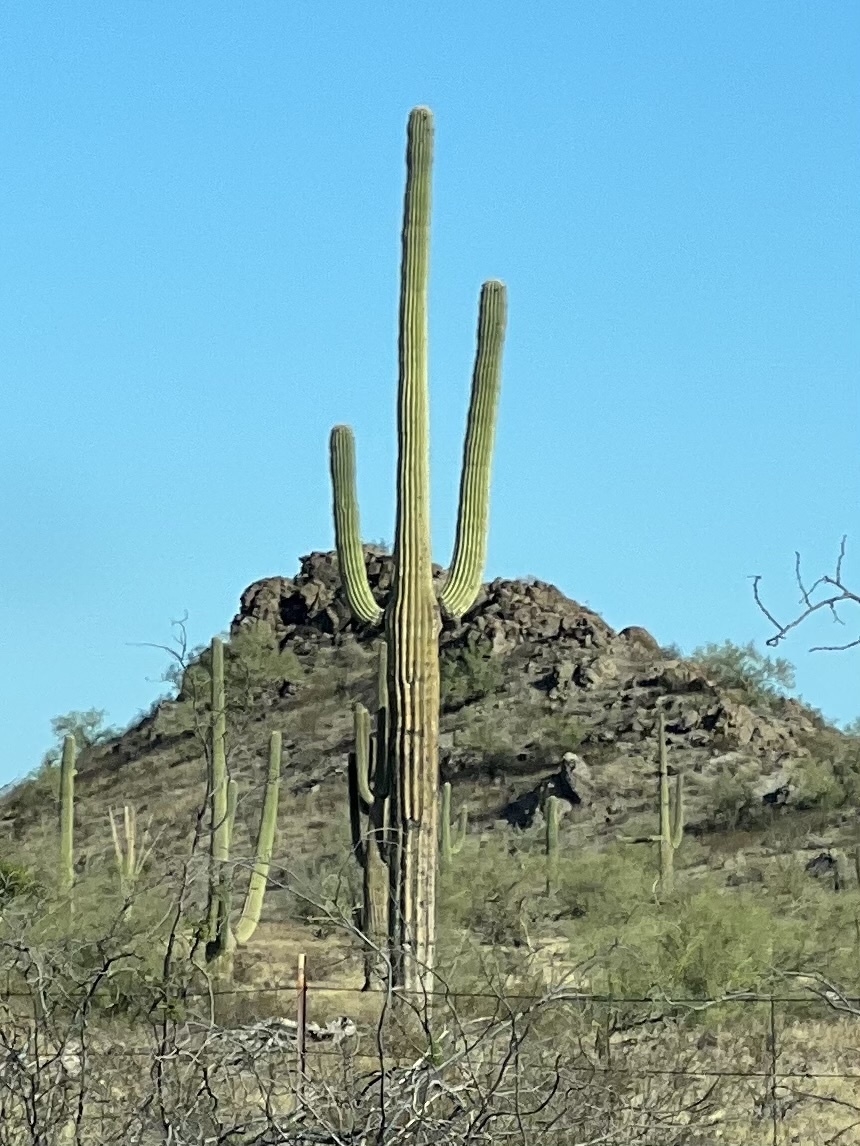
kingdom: Plantae
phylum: Tracheophyta
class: Magnoliopsida
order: Caryophyllales
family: Cactaceae
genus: Carnegiea
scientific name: Carnegiea gigantea
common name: Saguaro
